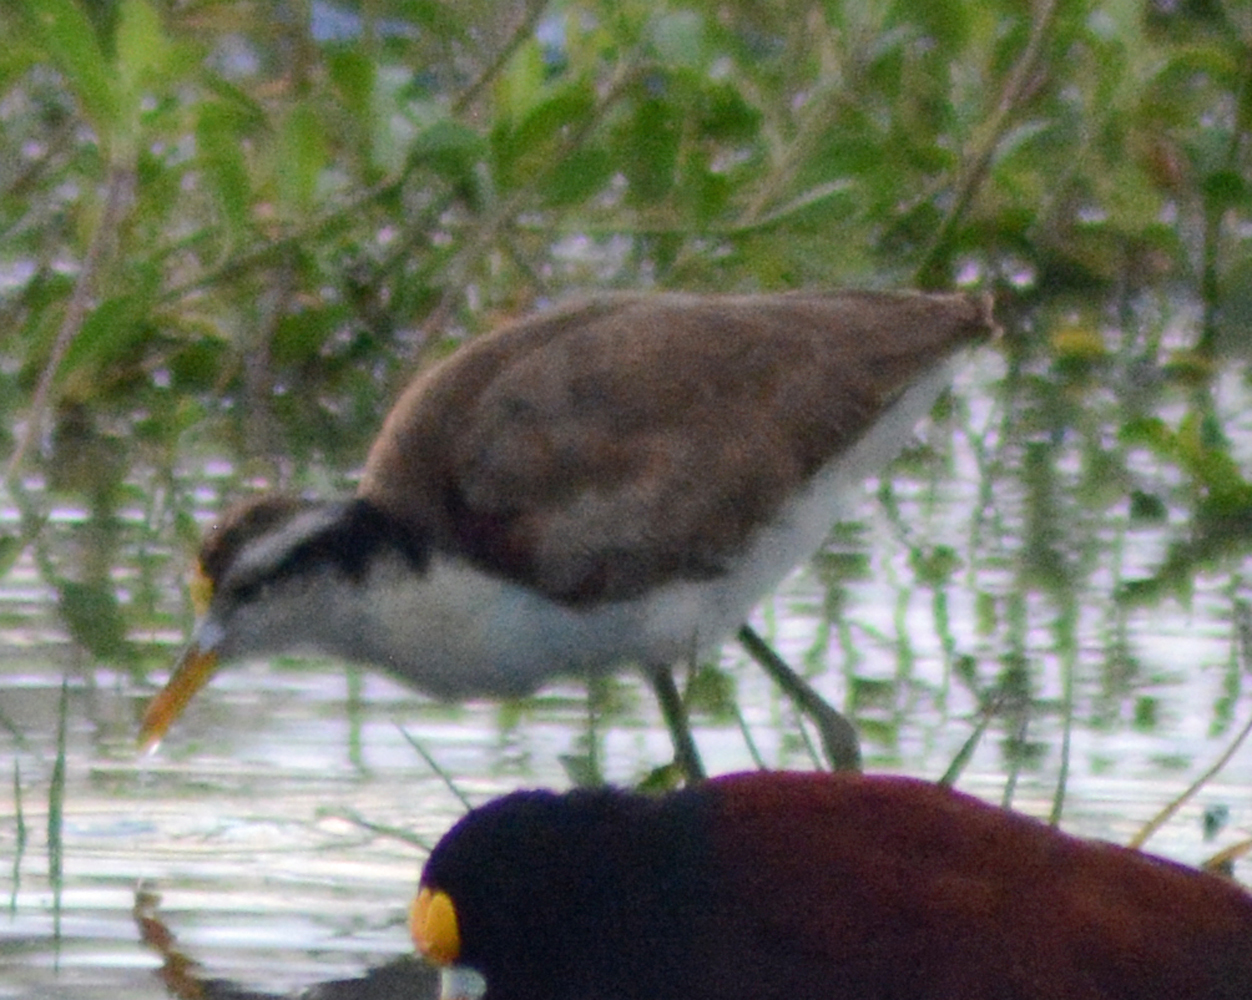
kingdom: Animalia
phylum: Chordata
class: Aves
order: Charadriiformes
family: Jacanidae
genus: Jacana
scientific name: Jacana spinosa
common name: Northern jacana
